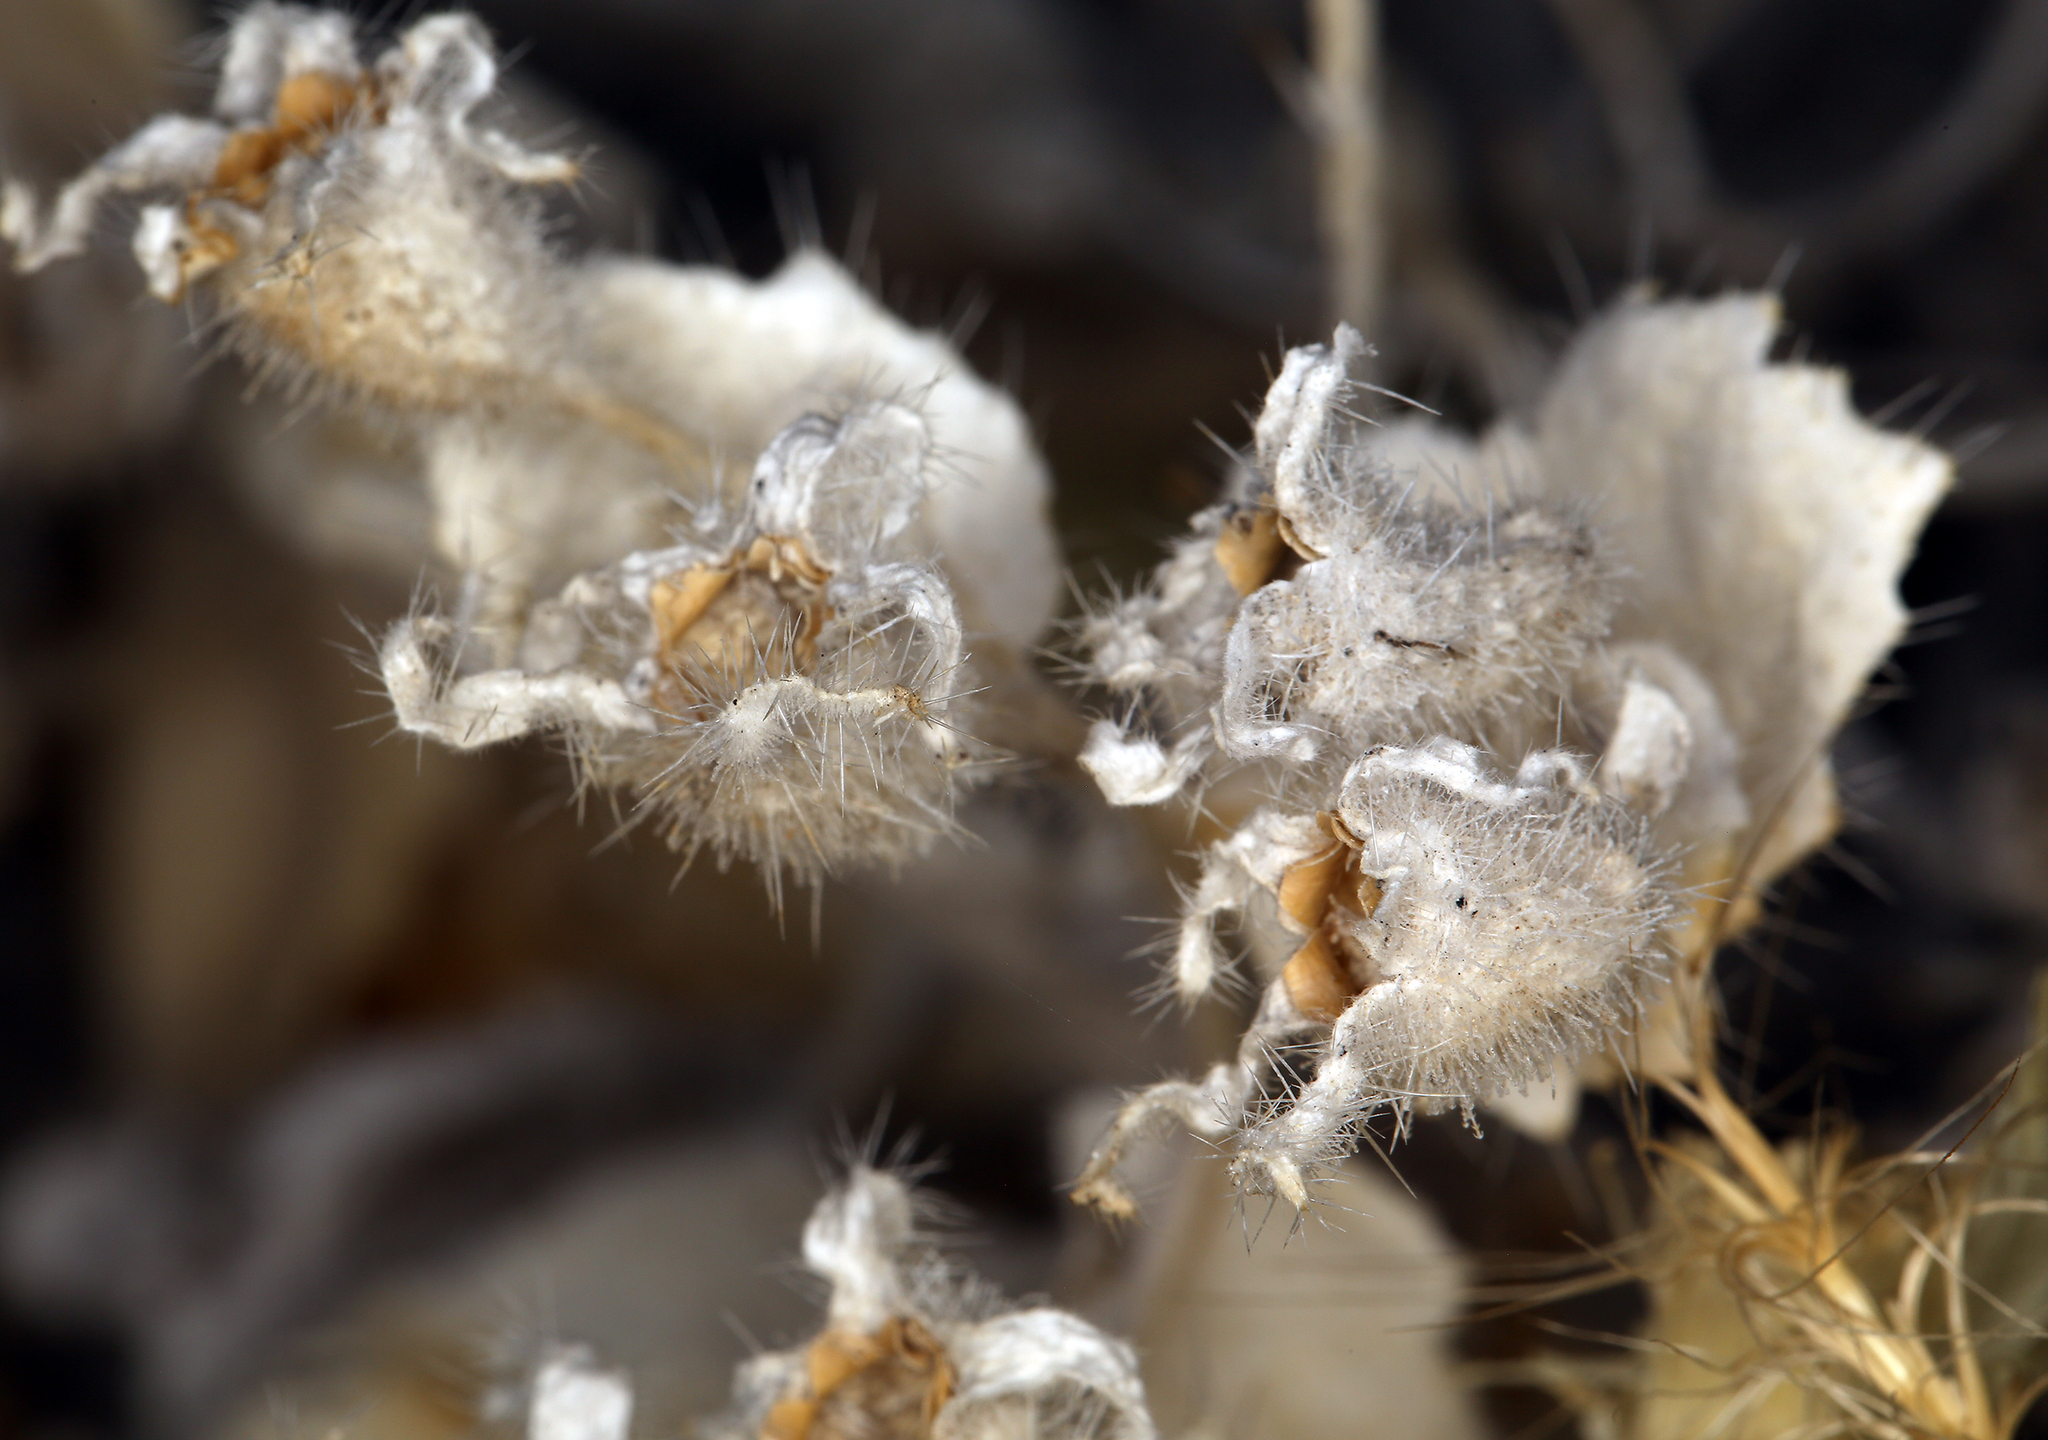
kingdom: Plantae
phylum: Tracheophyta
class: Magnoliopsida
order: Cornales
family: Loasaceae
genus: Eucnide
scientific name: Eucnide urens
